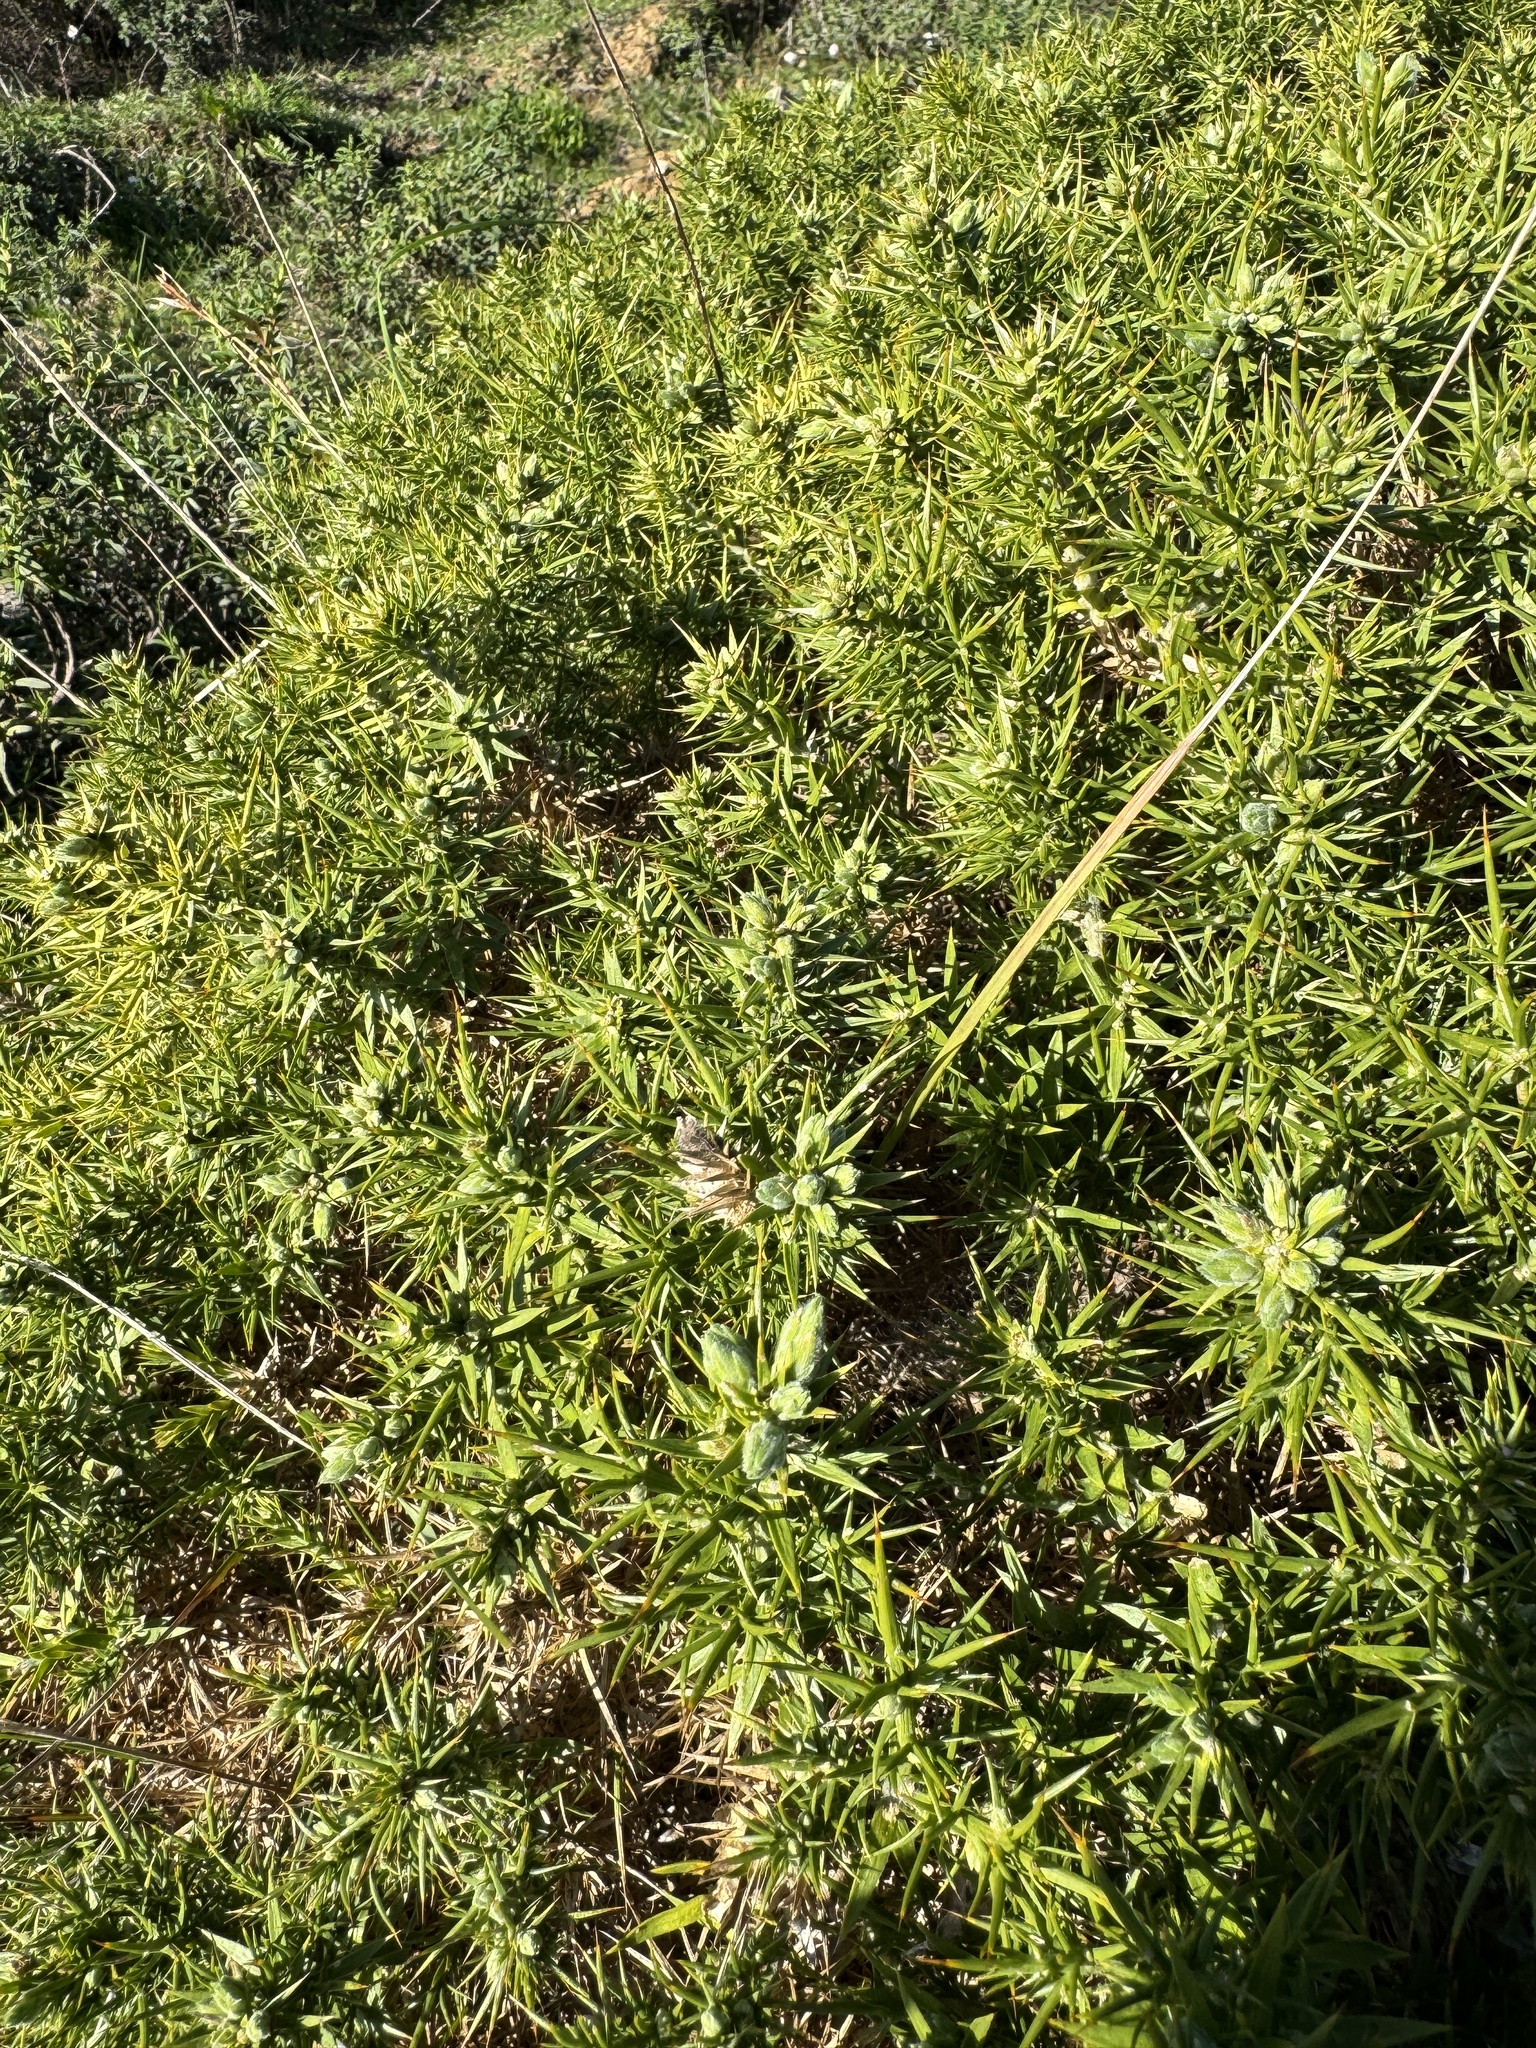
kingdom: Plantae
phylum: Tracheophyta
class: Magnoliopsida
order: Fabales
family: Fabaceae
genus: Ulex
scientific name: Ulex densus
